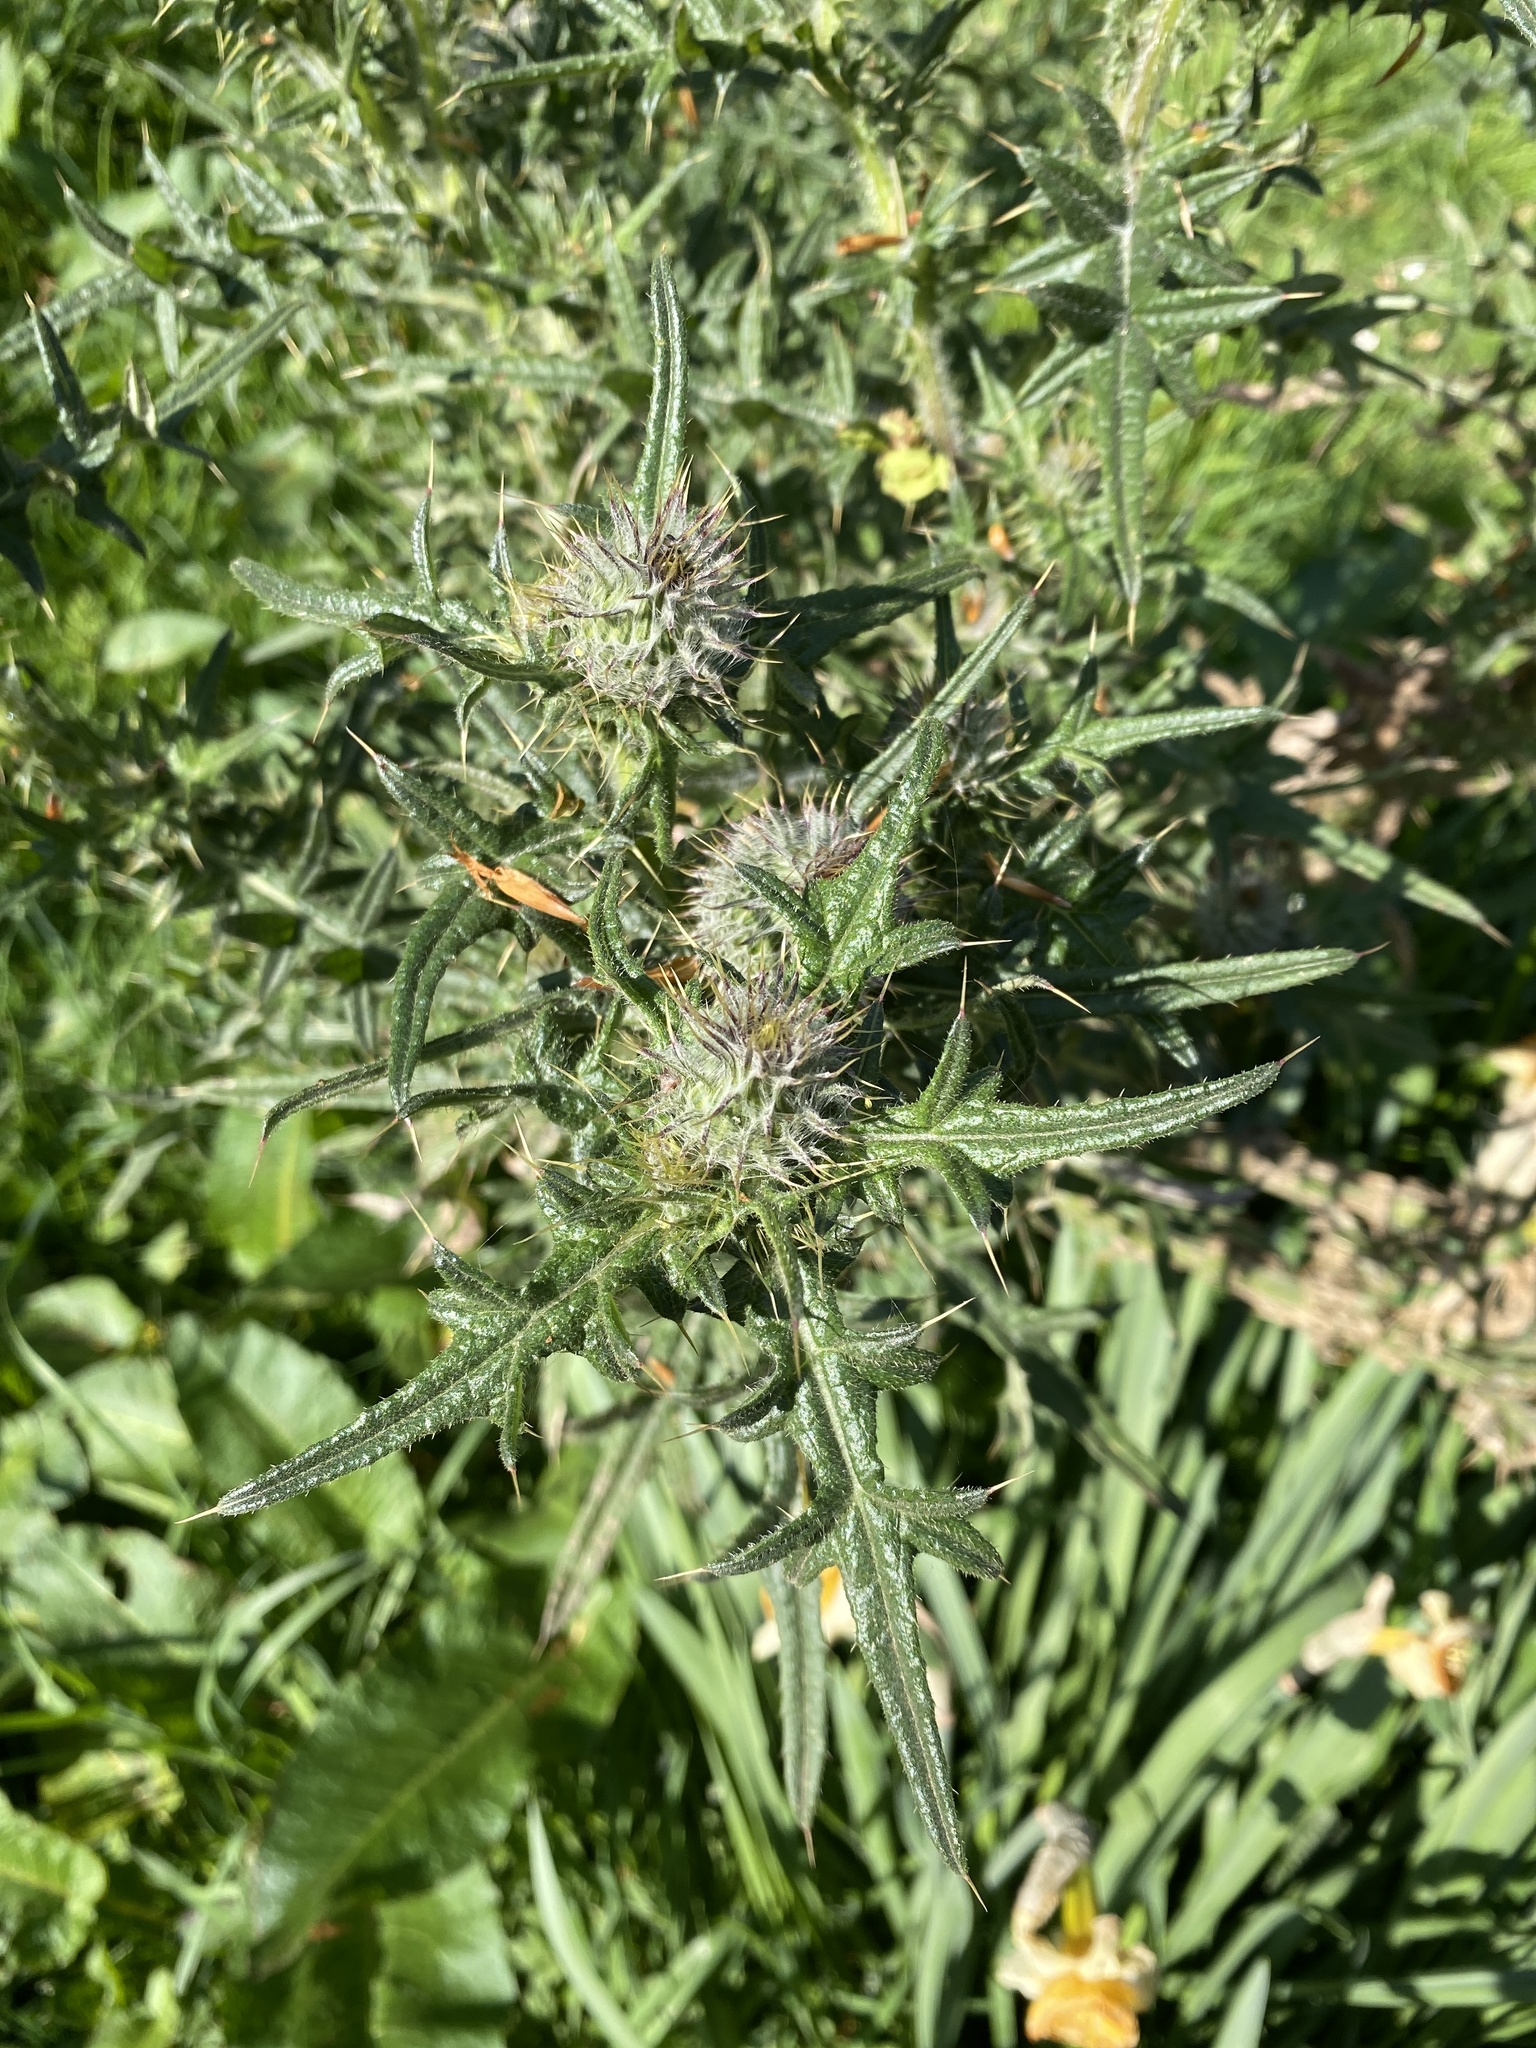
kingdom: Plantae
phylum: Tracheophyta
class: Magnoliopsida
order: Asterales
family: Asteraceae
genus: Cirsium
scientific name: Cirsium vulgare
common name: Bull thistle
